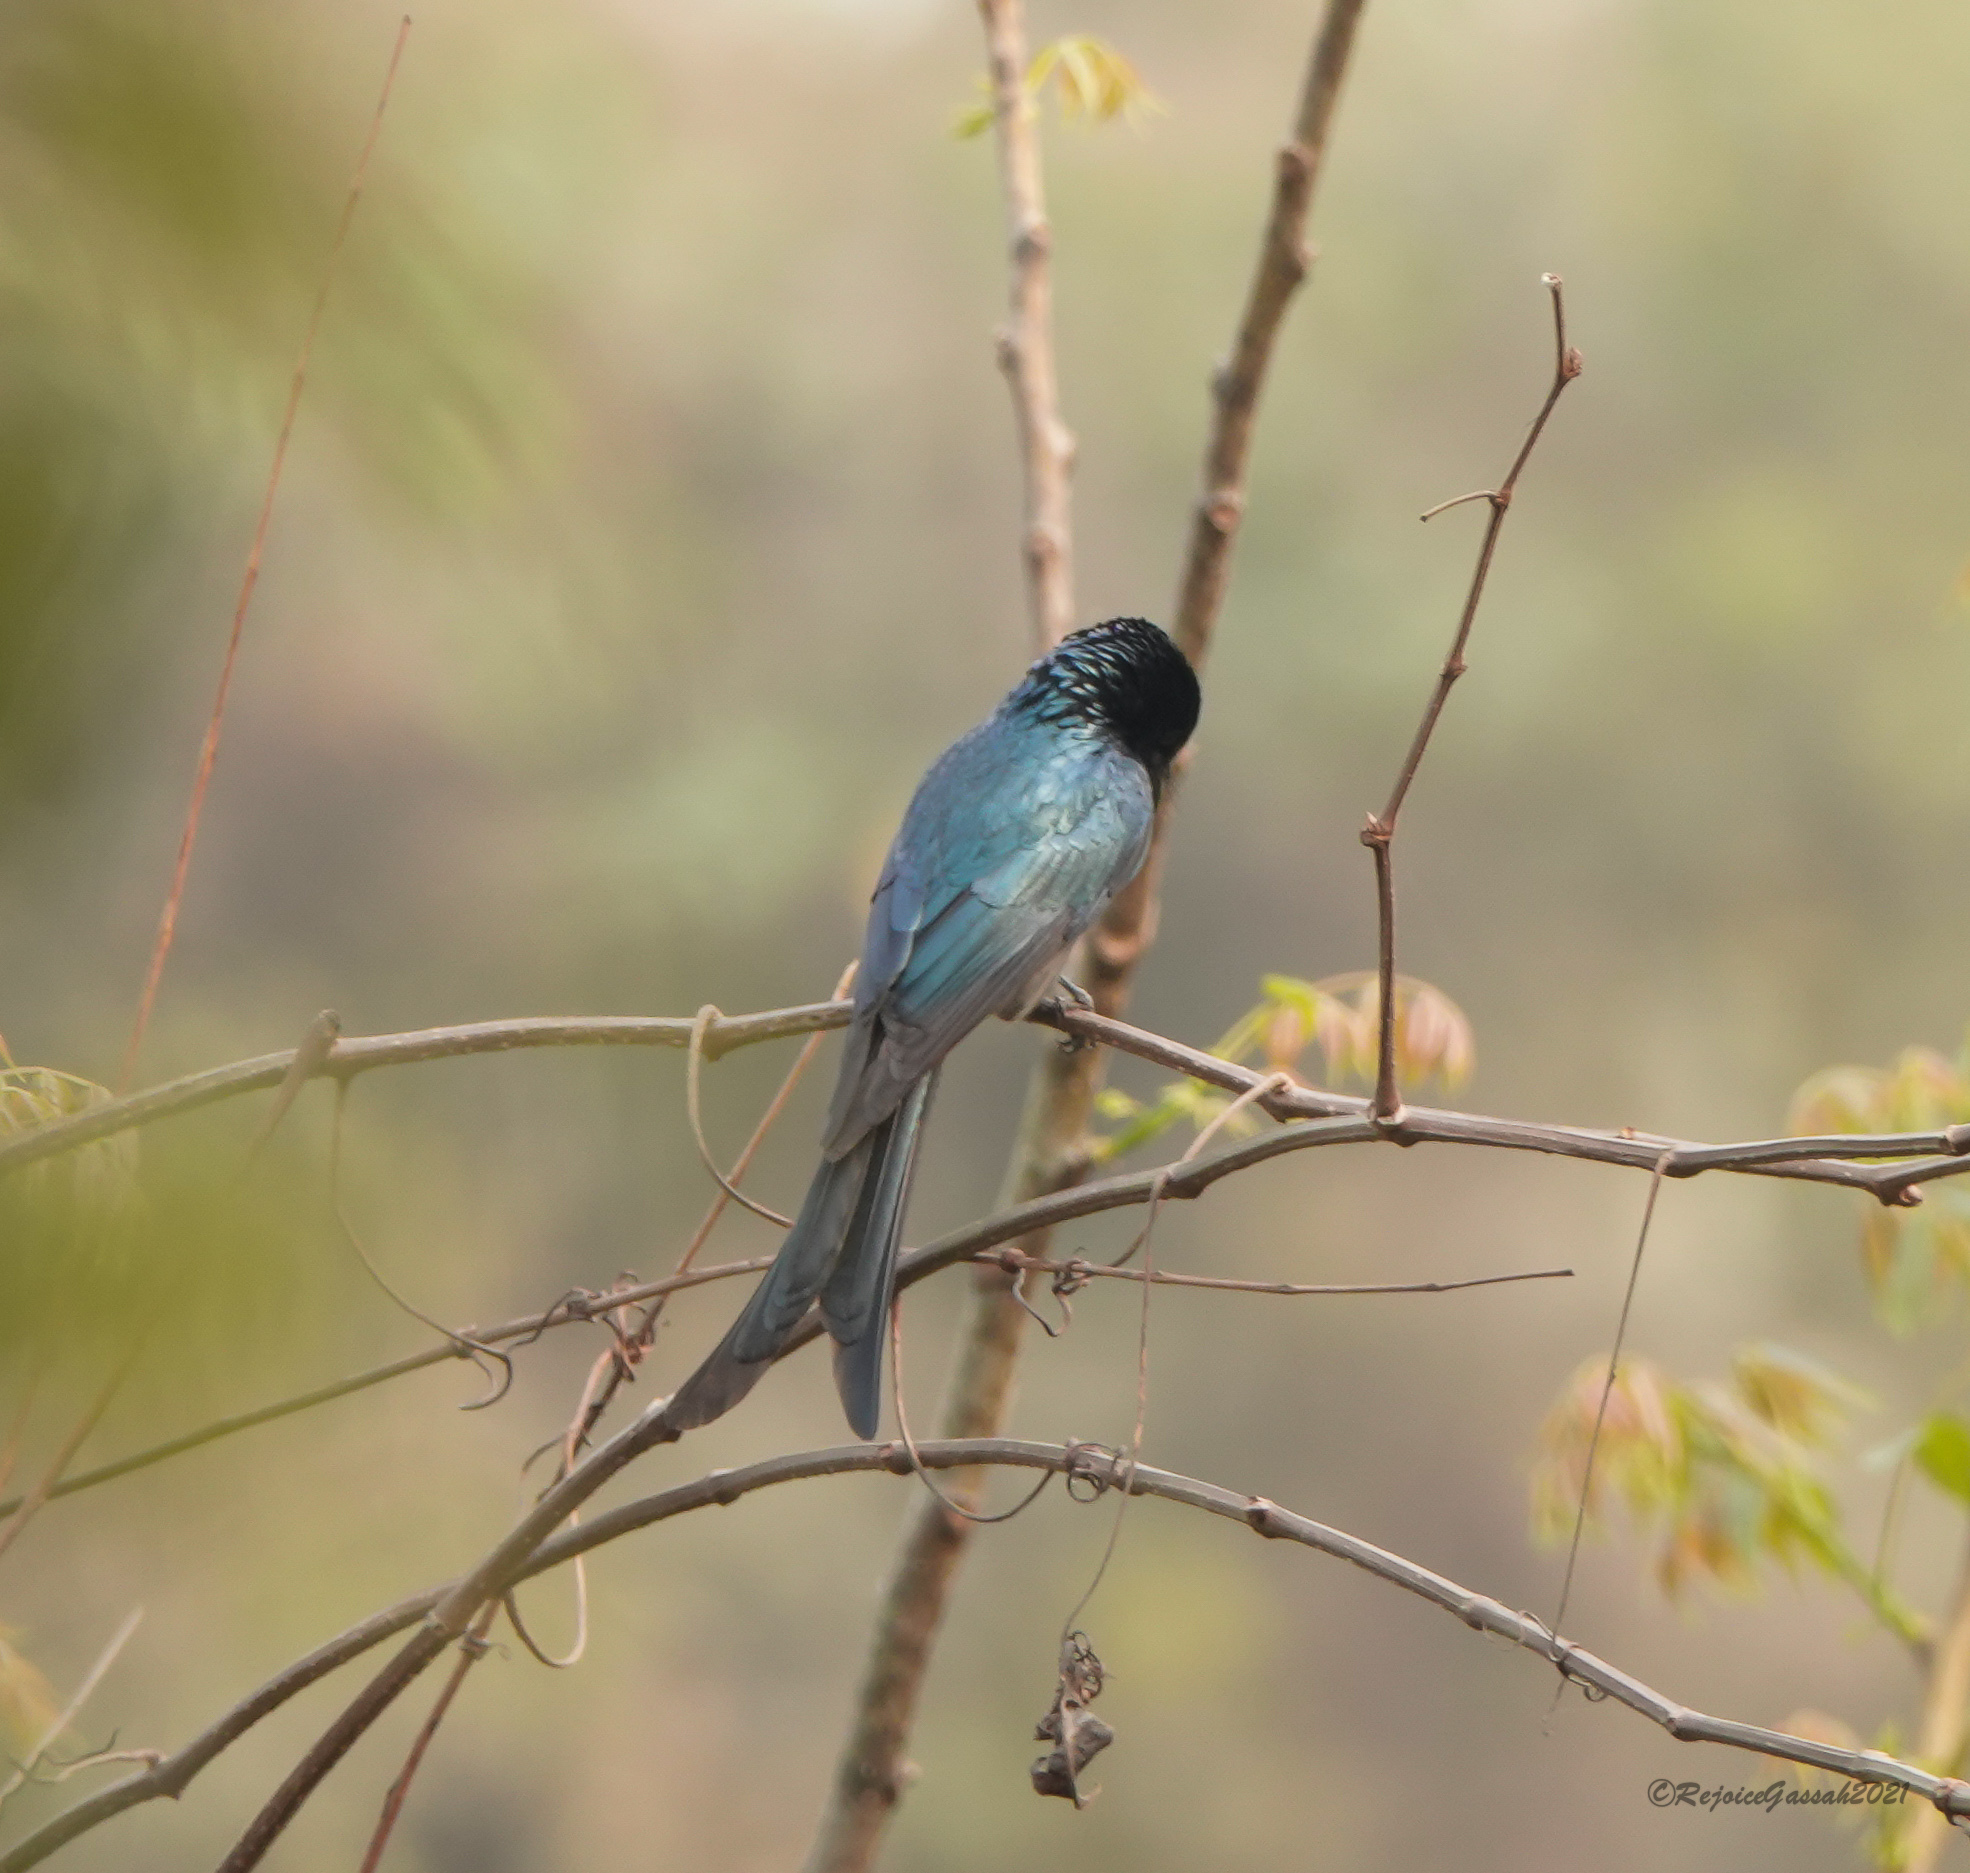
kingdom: Animalia
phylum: Chordata
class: Aves
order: Passeriformes
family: Dicruridae
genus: Dicrurus
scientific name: Dicrurus aeneus
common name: Bronzed drongo
